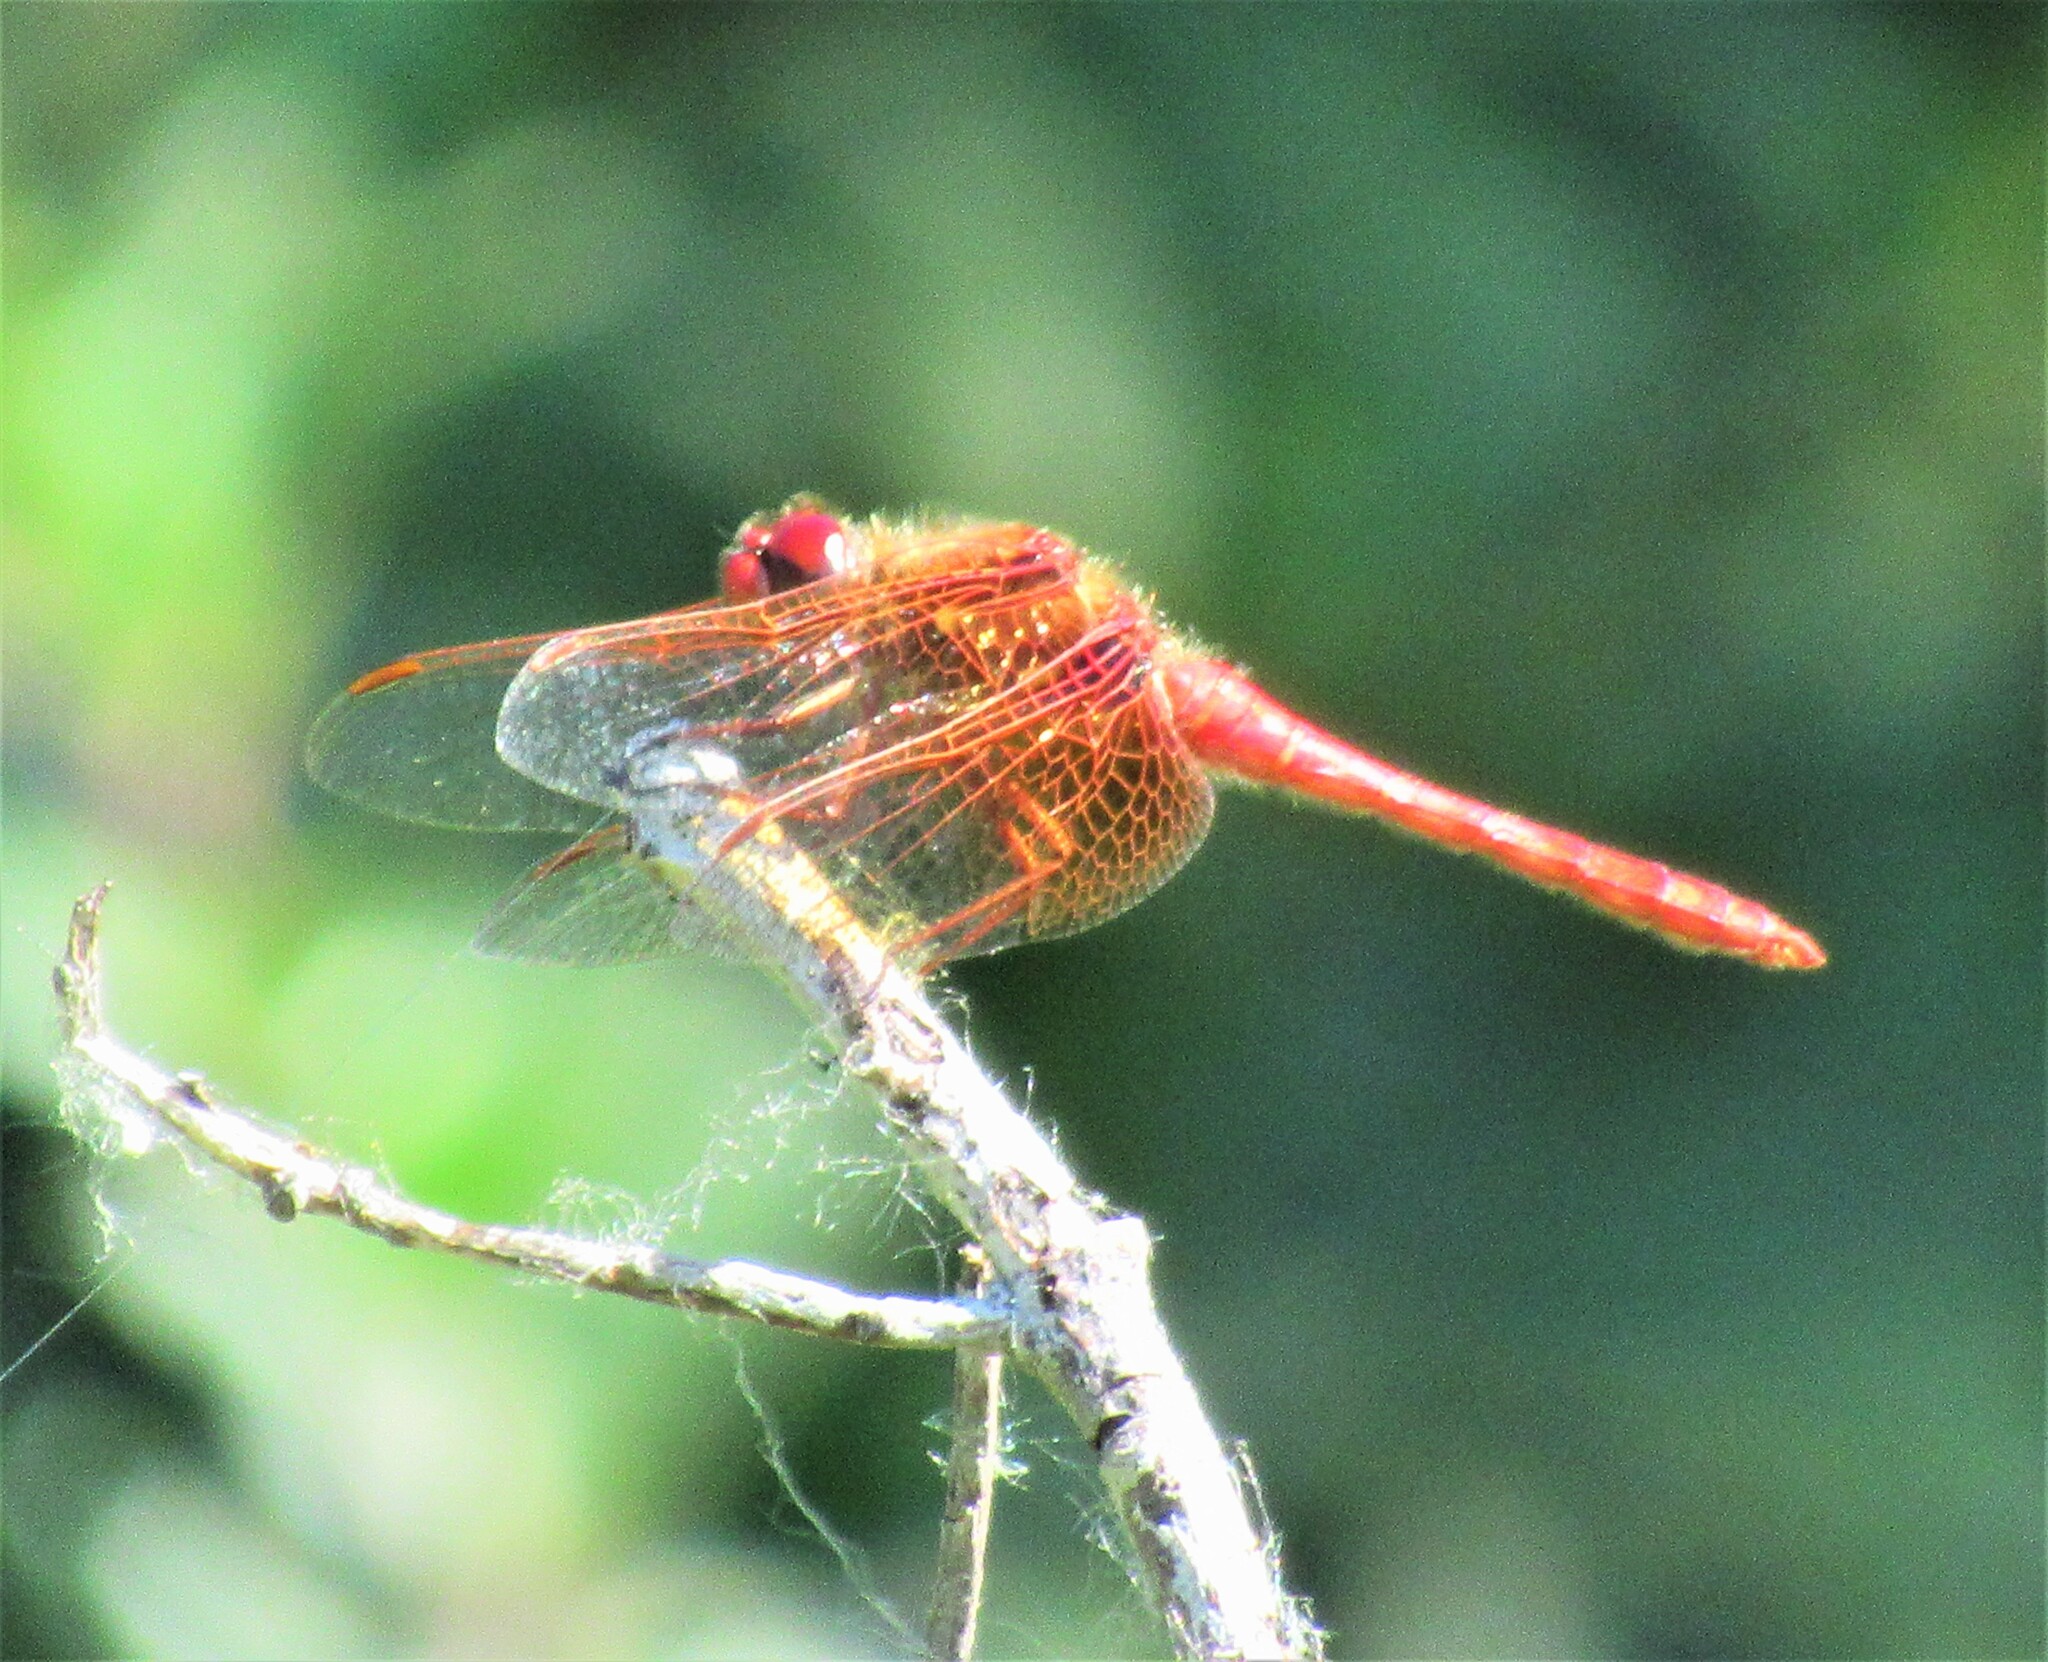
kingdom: Animalia
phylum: Arthropoda
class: Insecta
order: Odonata
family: Libellulidae
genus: Sympetrum
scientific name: Sympetrum illotum
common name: Cardinal meadowhawk
